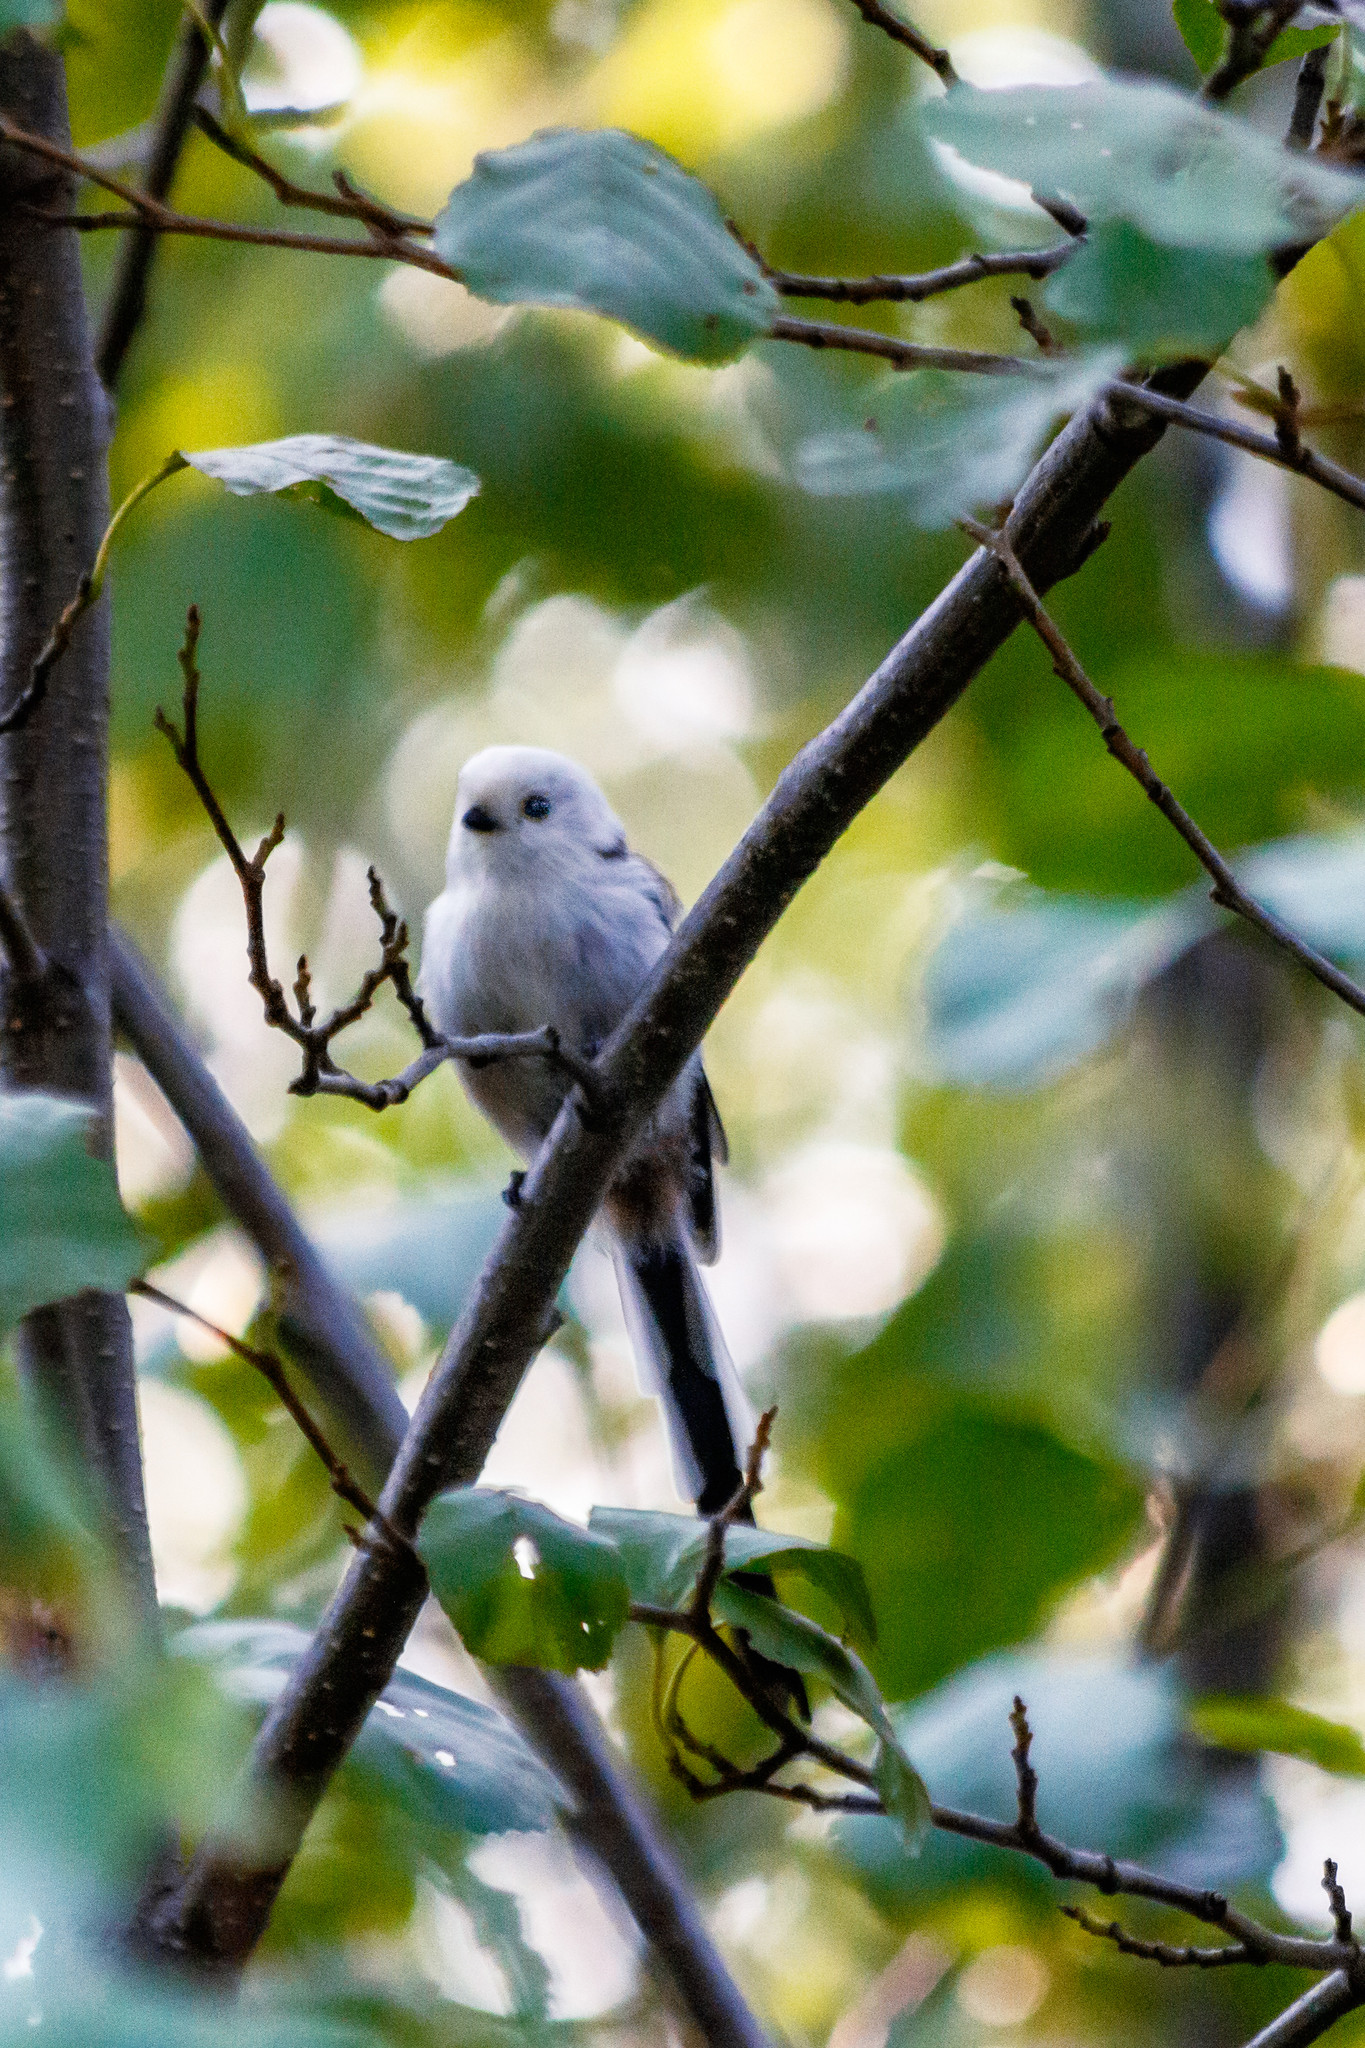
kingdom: Animalia
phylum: Chordata
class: Aves
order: Passeriformes
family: Aegithalidae
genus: Aegithalos
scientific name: Aegithalos caudatus
